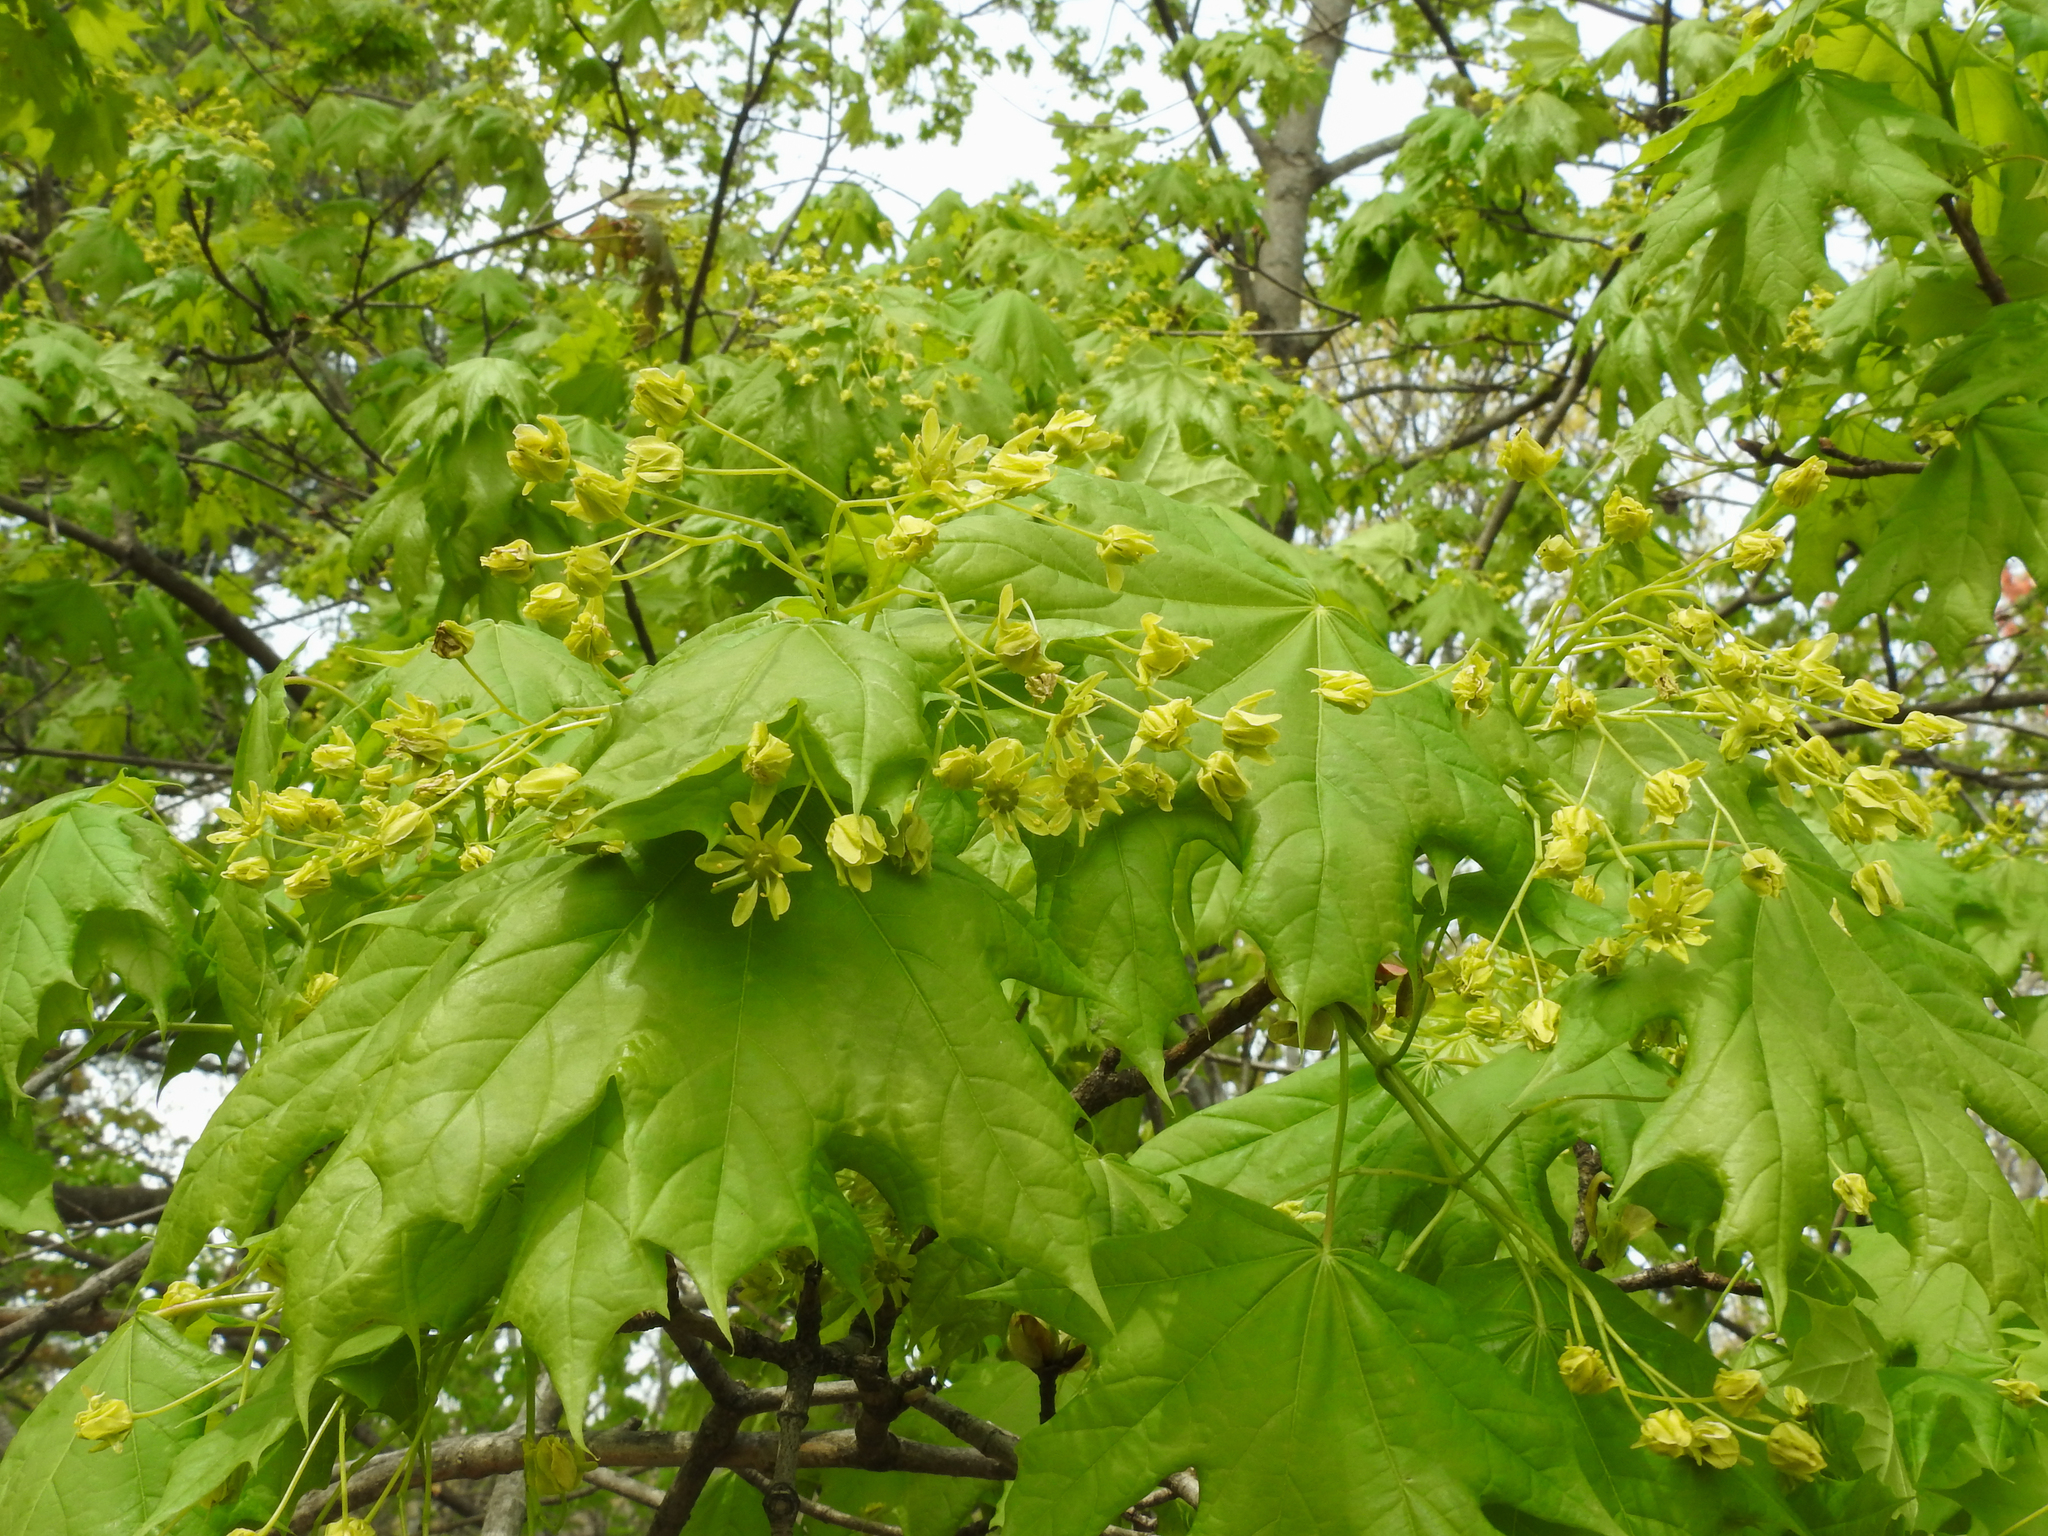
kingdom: Plantae
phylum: Tracheophyta
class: Magnoliopsida
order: Sapindales
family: Sapindaceae
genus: Acer
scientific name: Acer platanoides
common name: Norway maple
